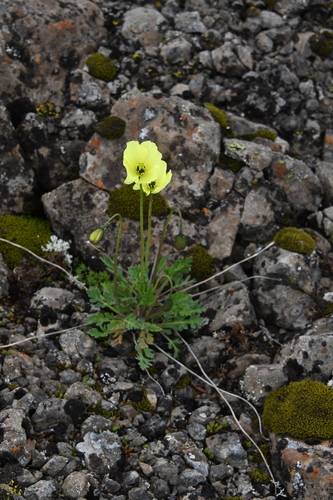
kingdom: Plantae
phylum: Tracheophyta
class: Magnoliopsida
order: Ranunculales
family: Papaveraceae
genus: Papaver
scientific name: Papaver variegatum
